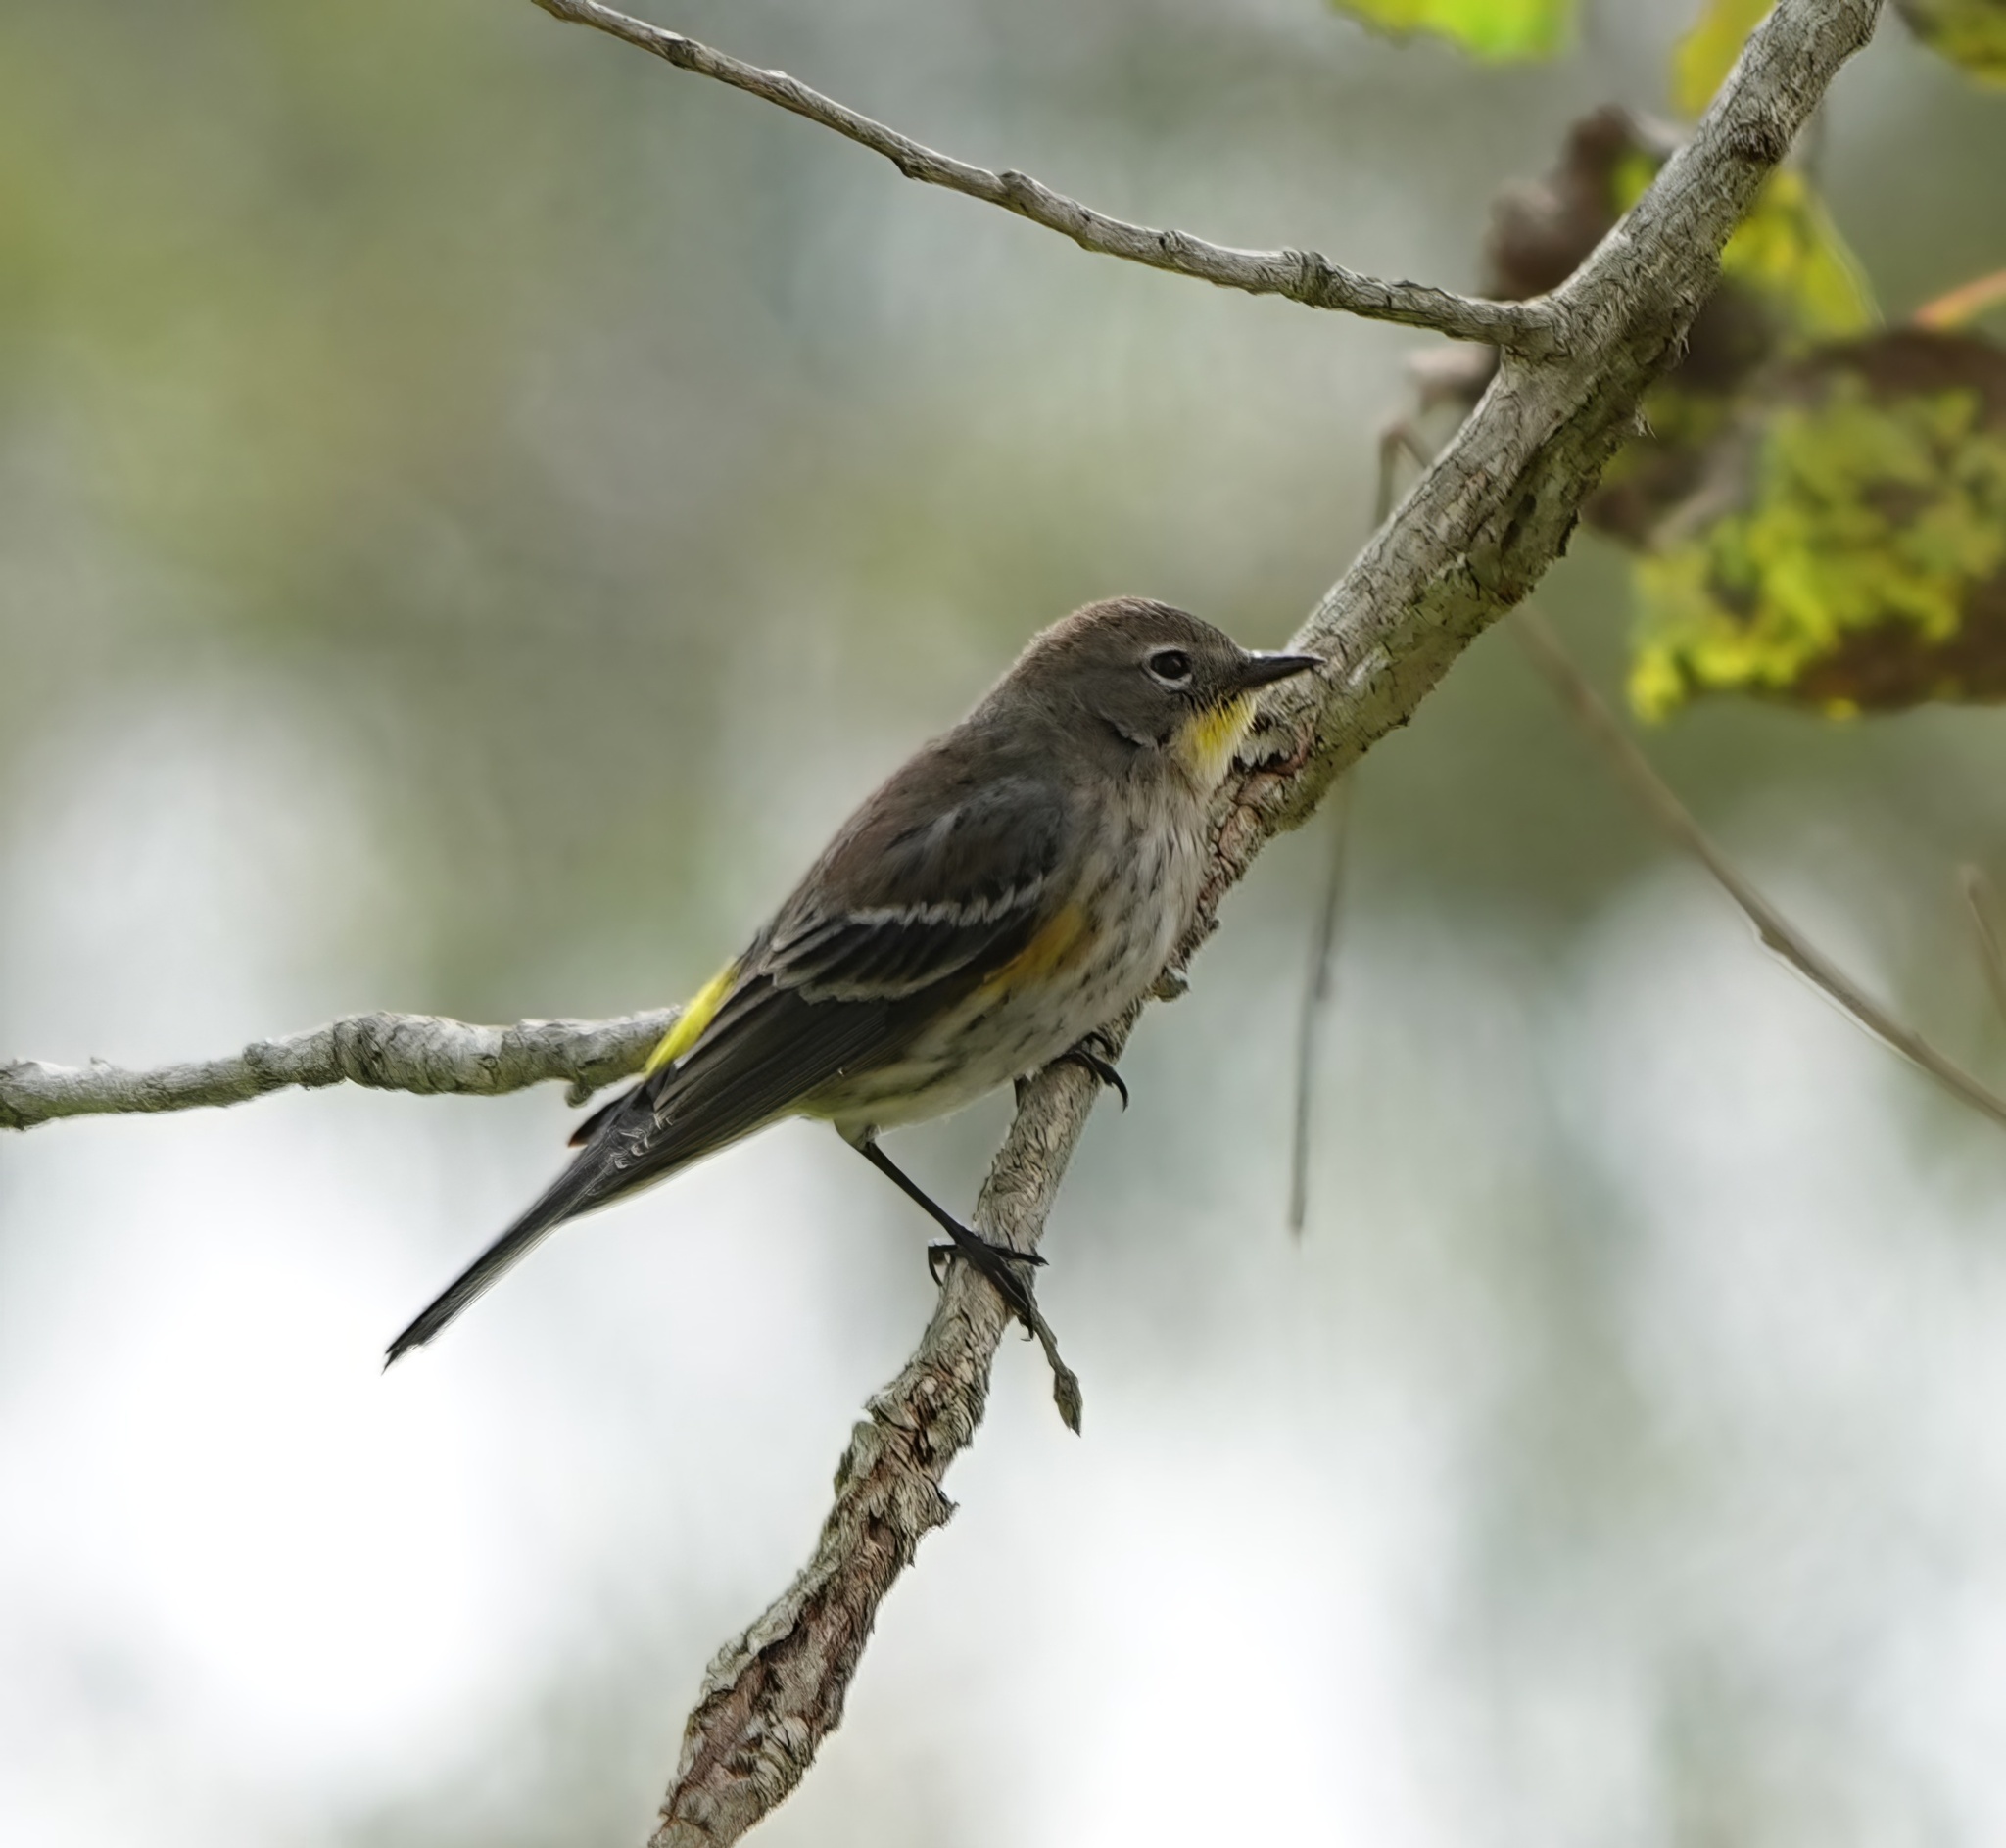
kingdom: Animalia
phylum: Chordata
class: Aves
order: Passeriformes
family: Parulidae
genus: Setophaga
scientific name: Setophaga coronata
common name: Myrtle warbler
